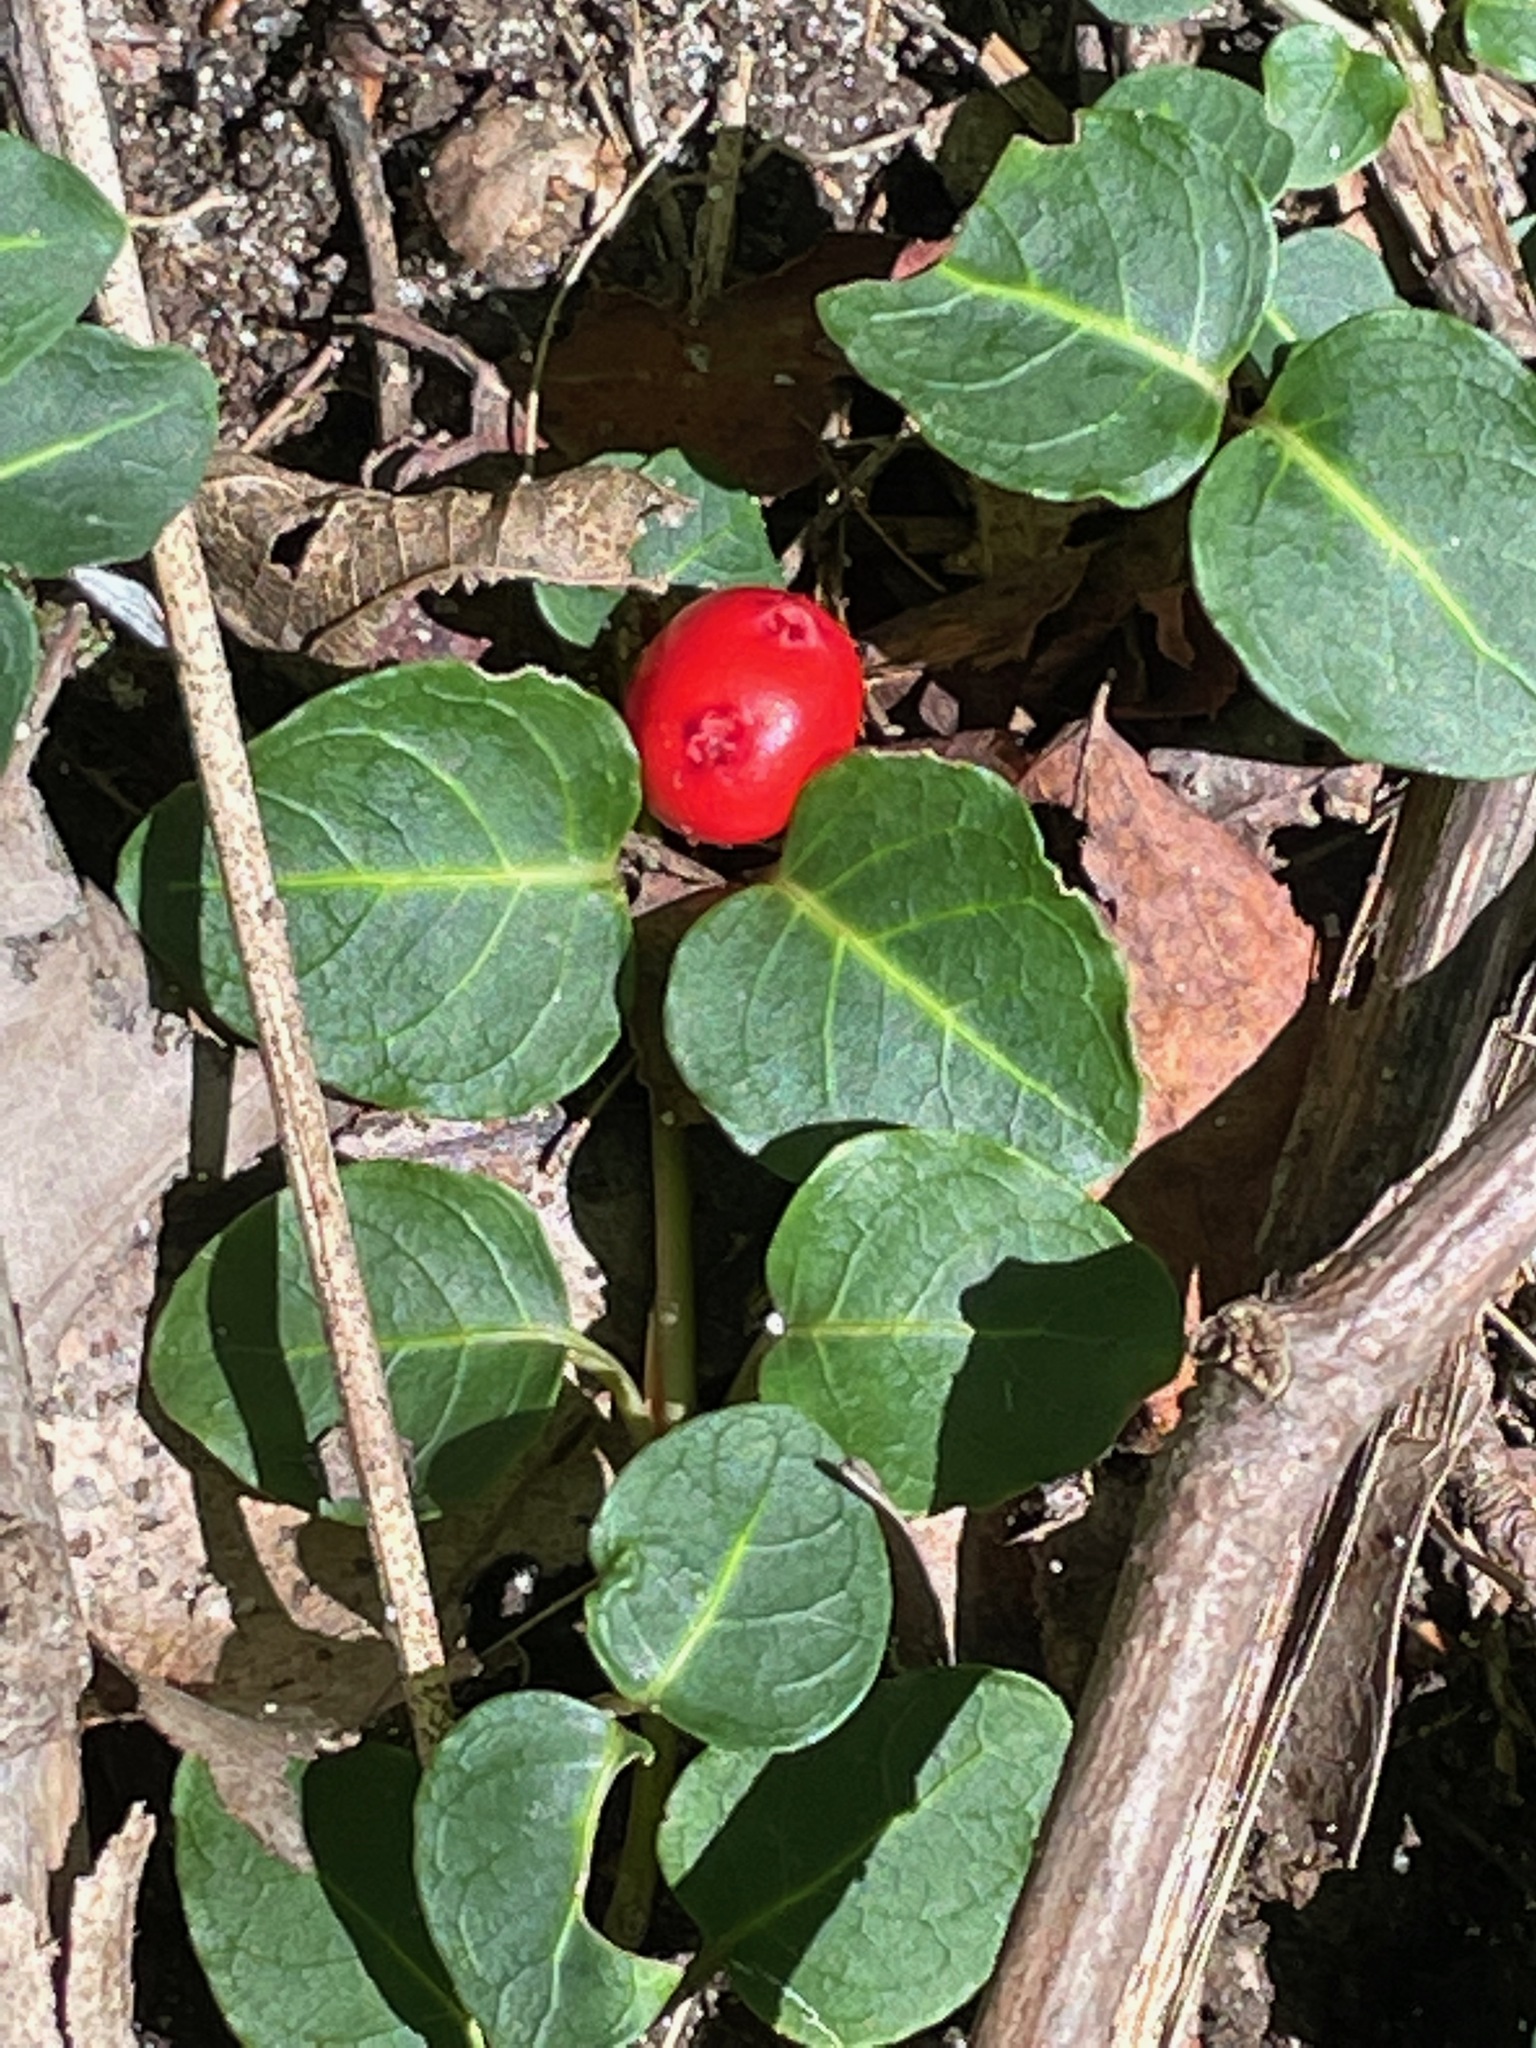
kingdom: Plantae
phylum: Tracheophyta
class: Magnoliopsida
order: Gentianales
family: Rubiaceae
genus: Mitchella
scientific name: Mitchella repens
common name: Partridge-berry
